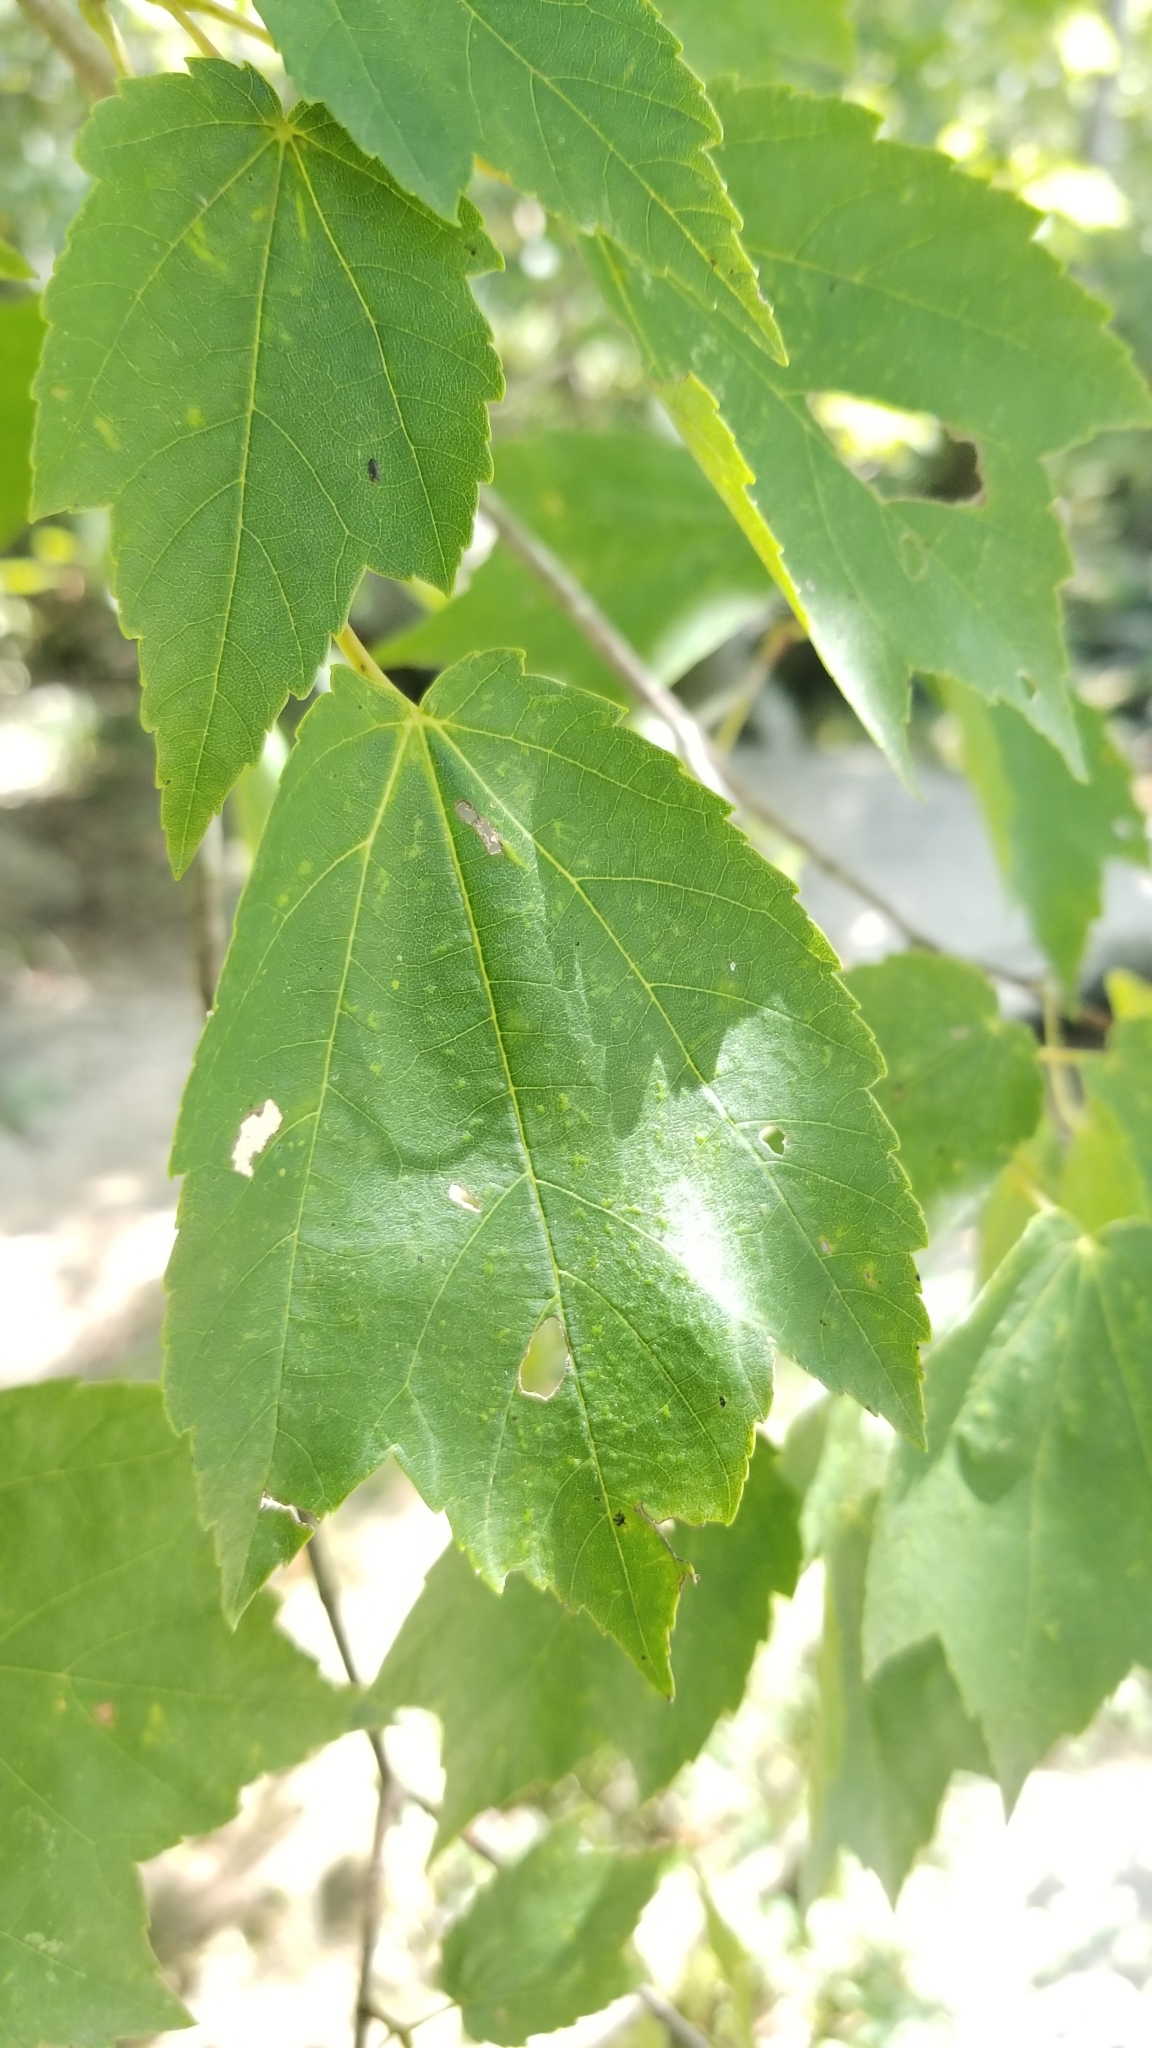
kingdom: Plantae
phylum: Tracheophyta
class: Magnoliopsida
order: Sapindales
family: Sapindaceae
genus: Acer
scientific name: Acer rubrum
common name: Red maple
